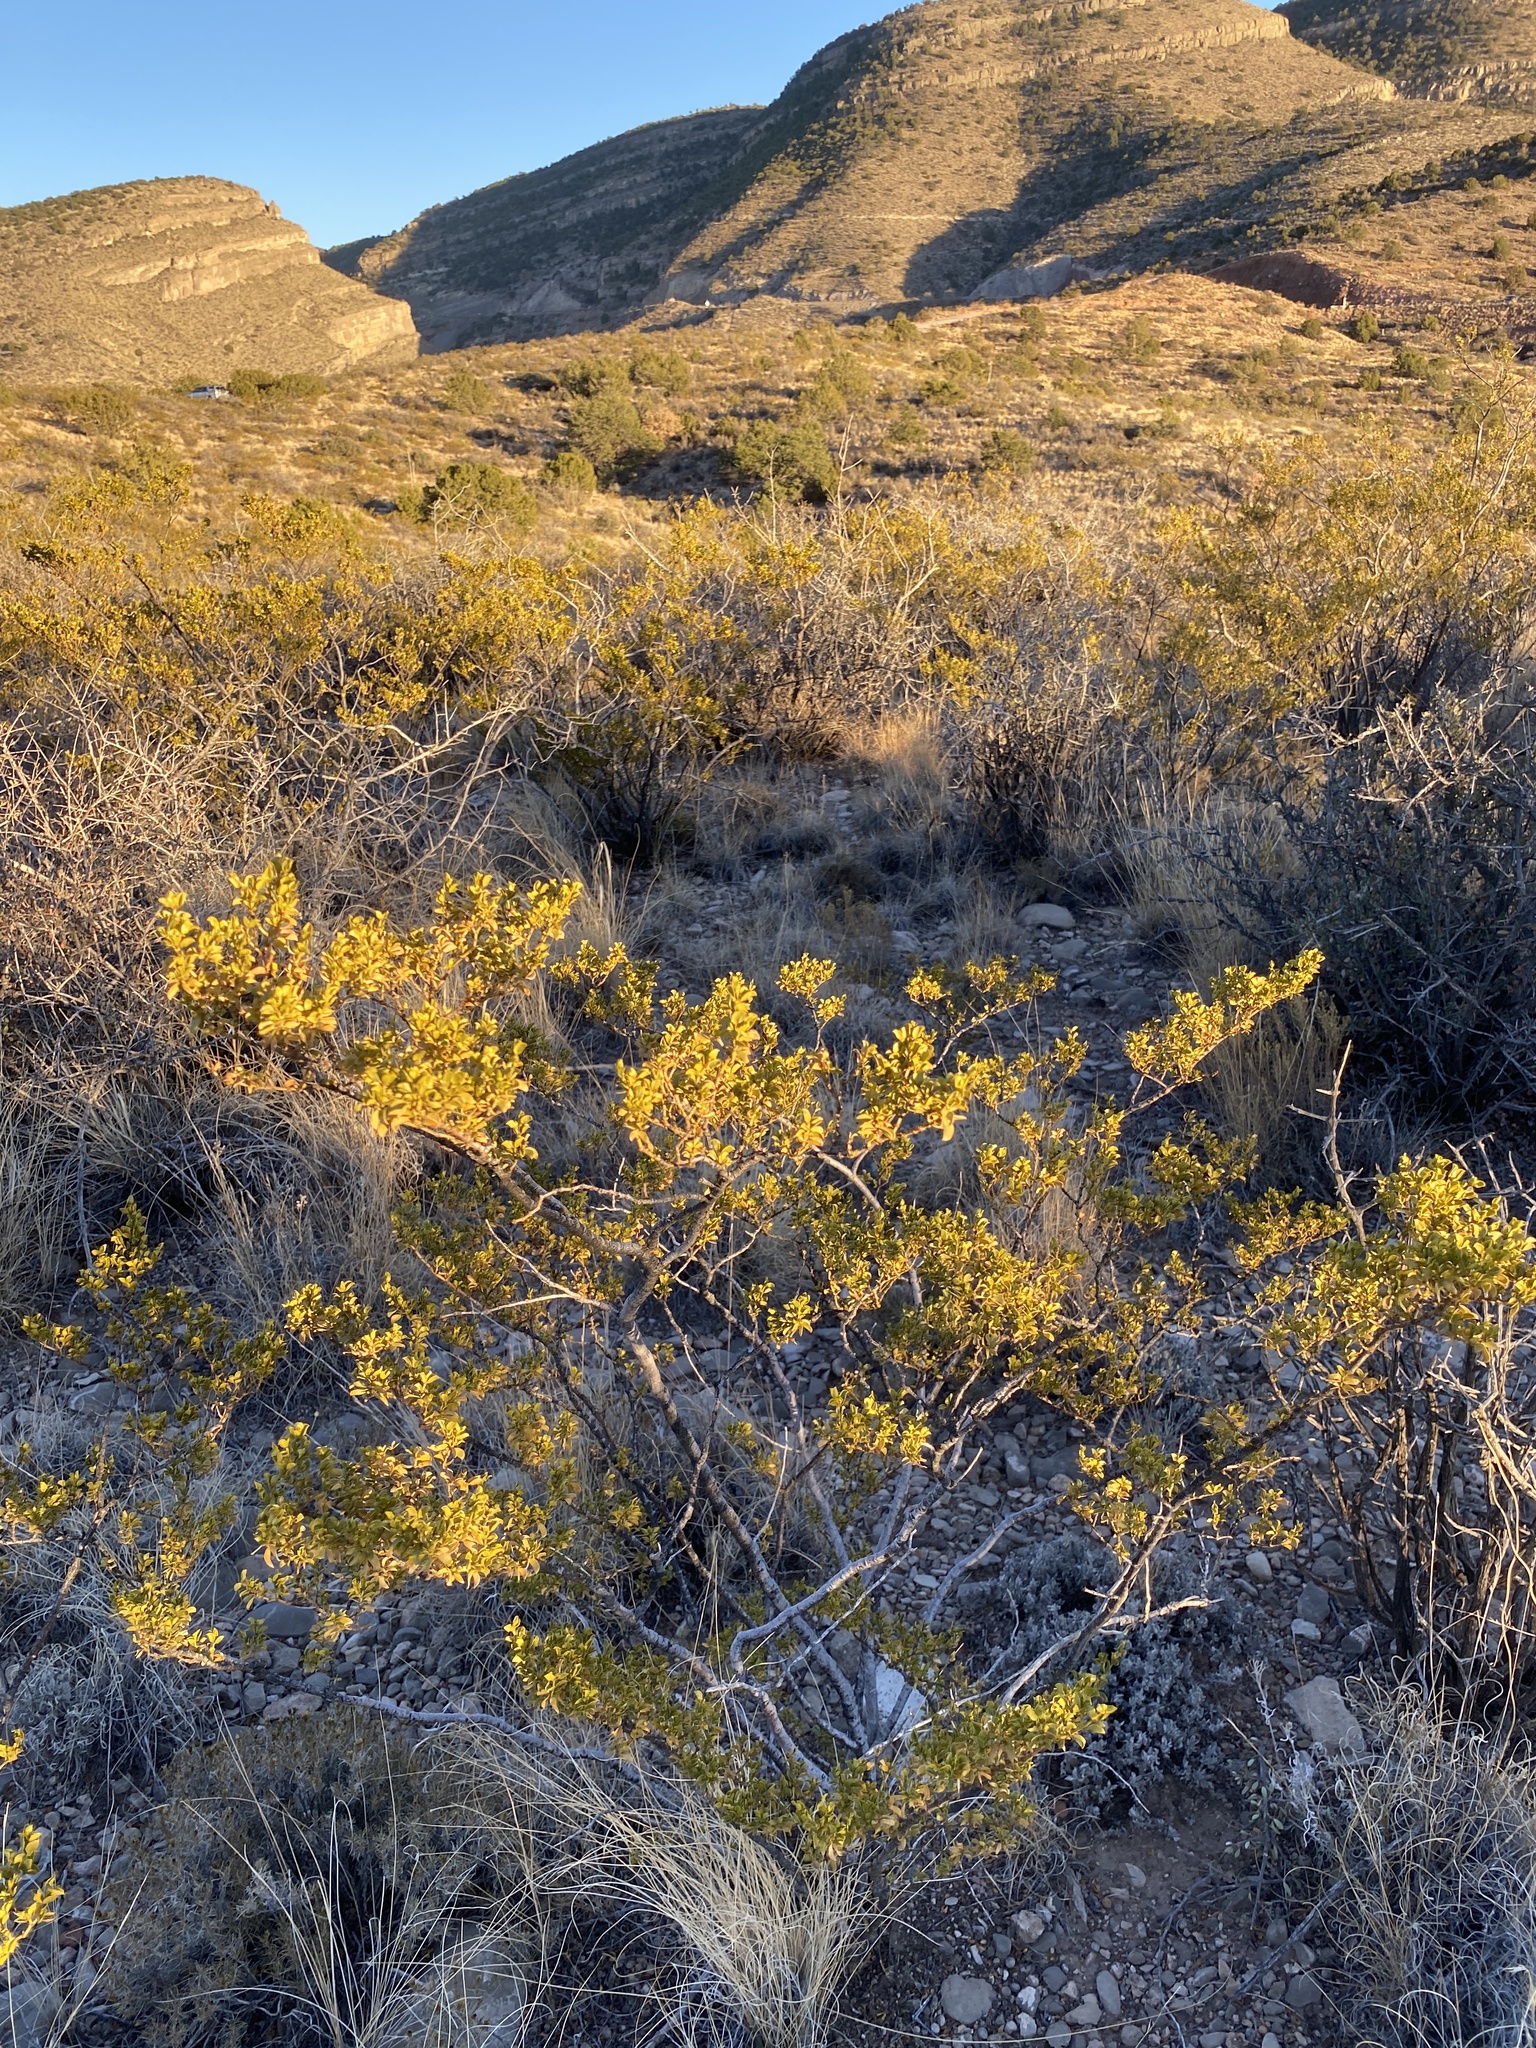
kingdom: Plantae
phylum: Tracheophyta
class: Magnoliopsida
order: Zygophyllales
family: Zygophyllaceae
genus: Larrea
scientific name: Larrea tridentata
